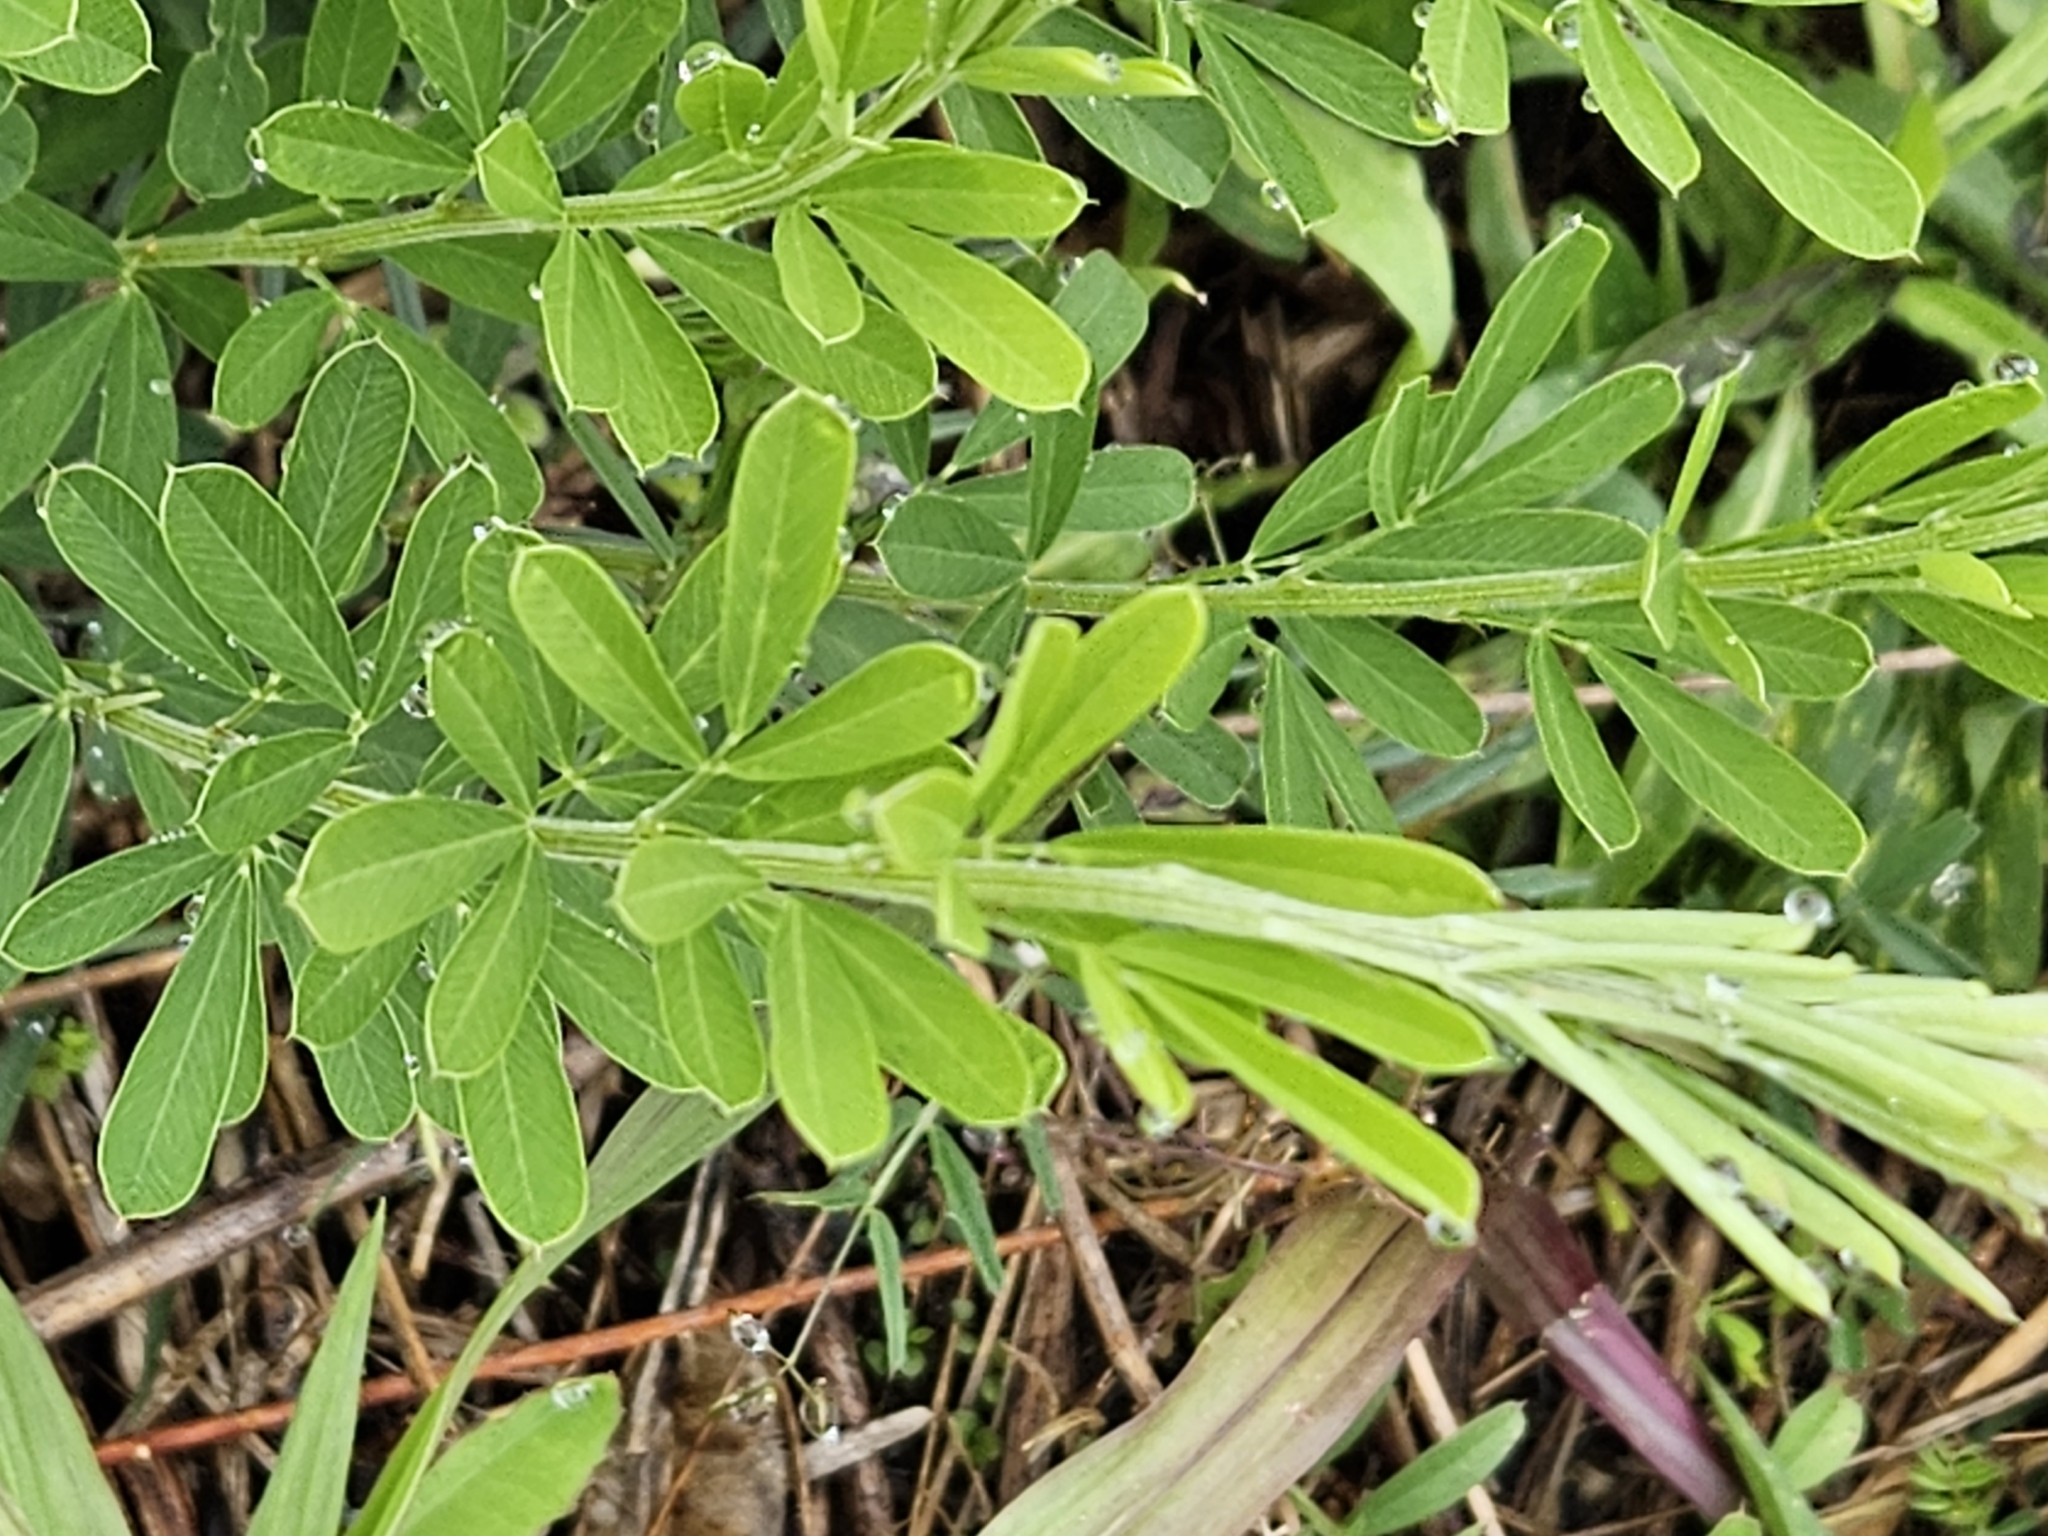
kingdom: Plantae
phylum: Tracheophyta
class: Magnoliopsida
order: Fabales
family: Fabaceae
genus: Lespedeza
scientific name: Lespedeza cuneata
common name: Chinese bush-clover
